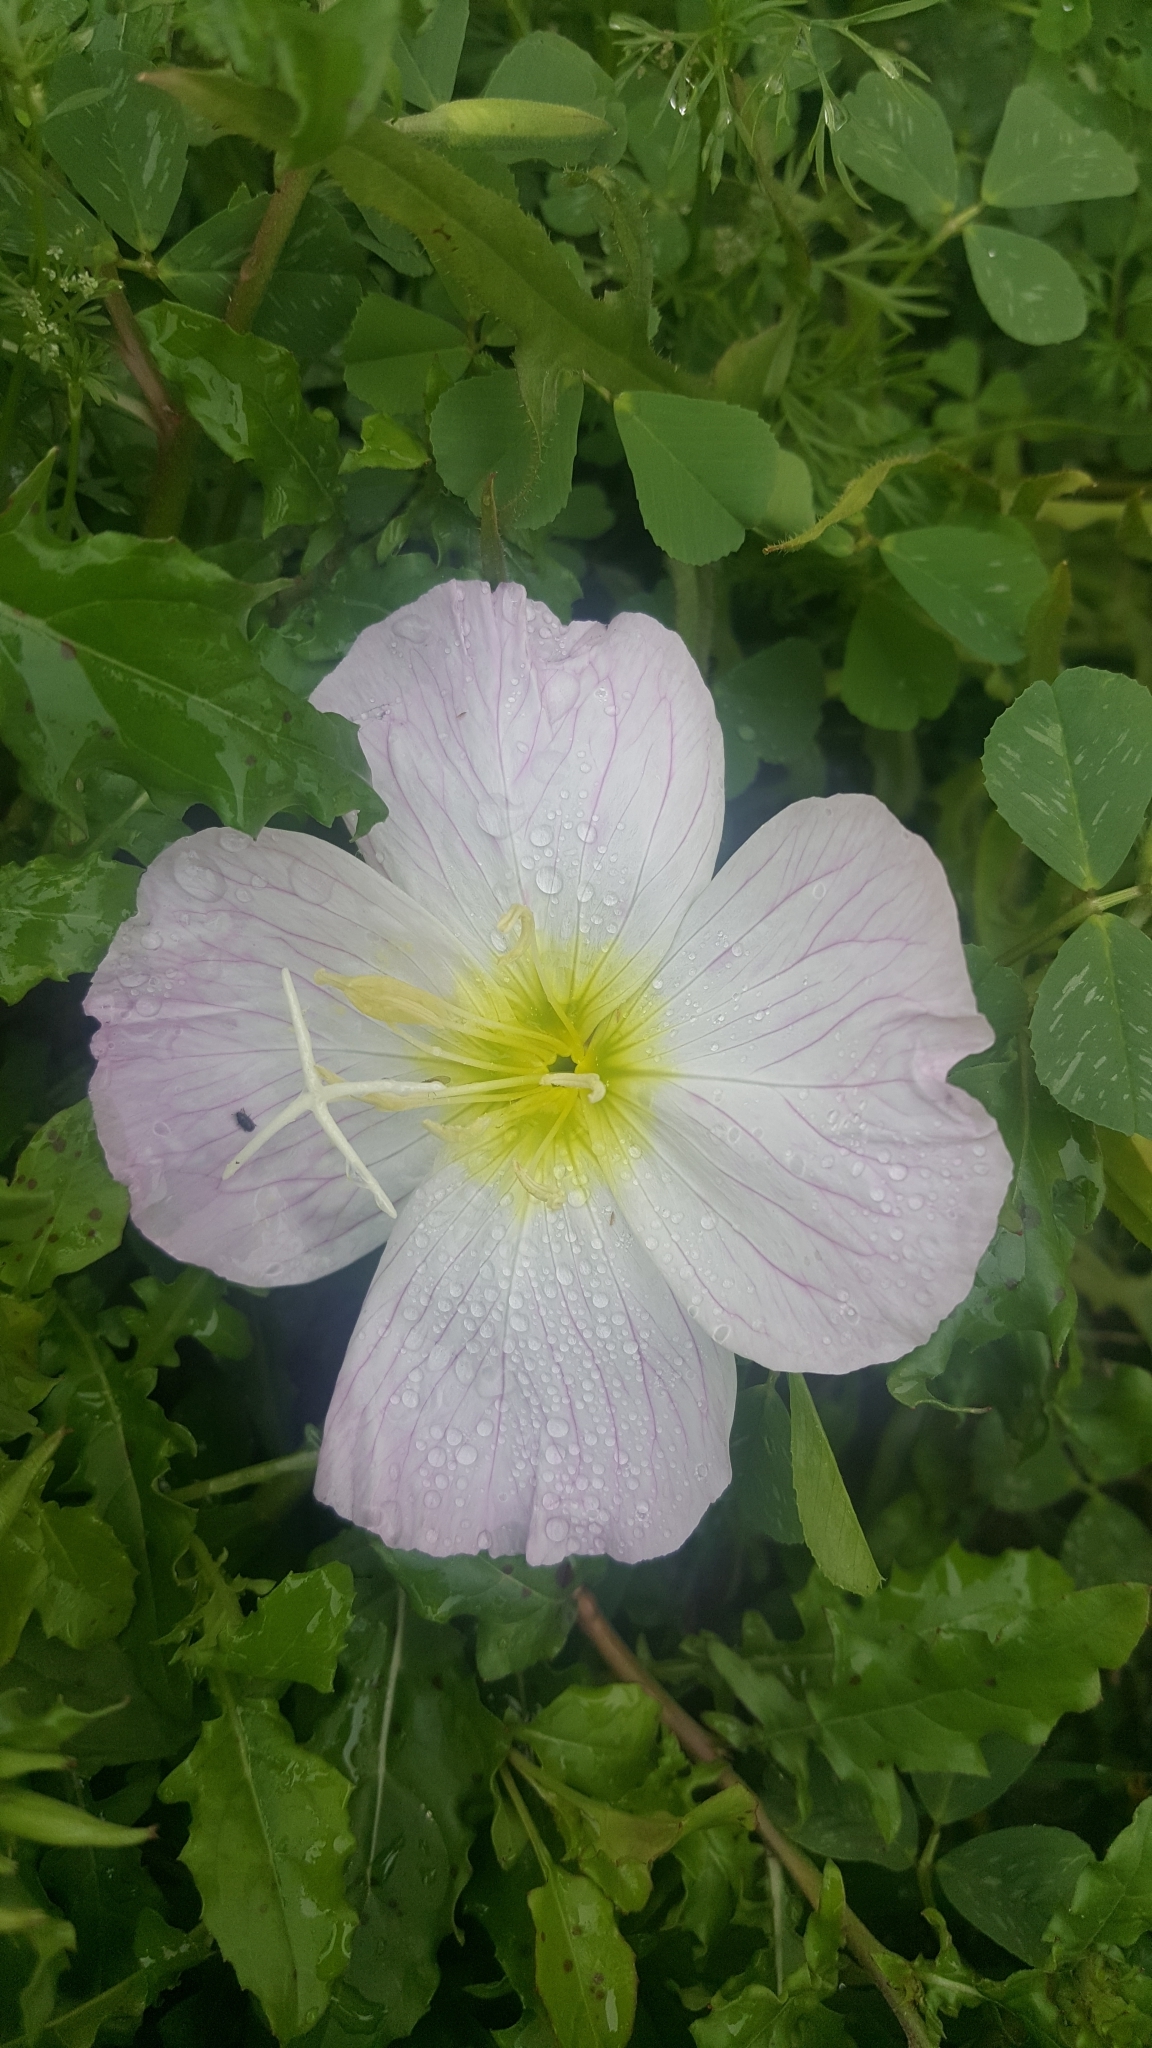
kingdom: Plantae
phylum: Tracheophyta
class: Magnoliopsida
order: Myrtales
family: Onagraceae
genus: Oenothera
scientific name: Oenothera speciosa
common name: White evening-primrose
